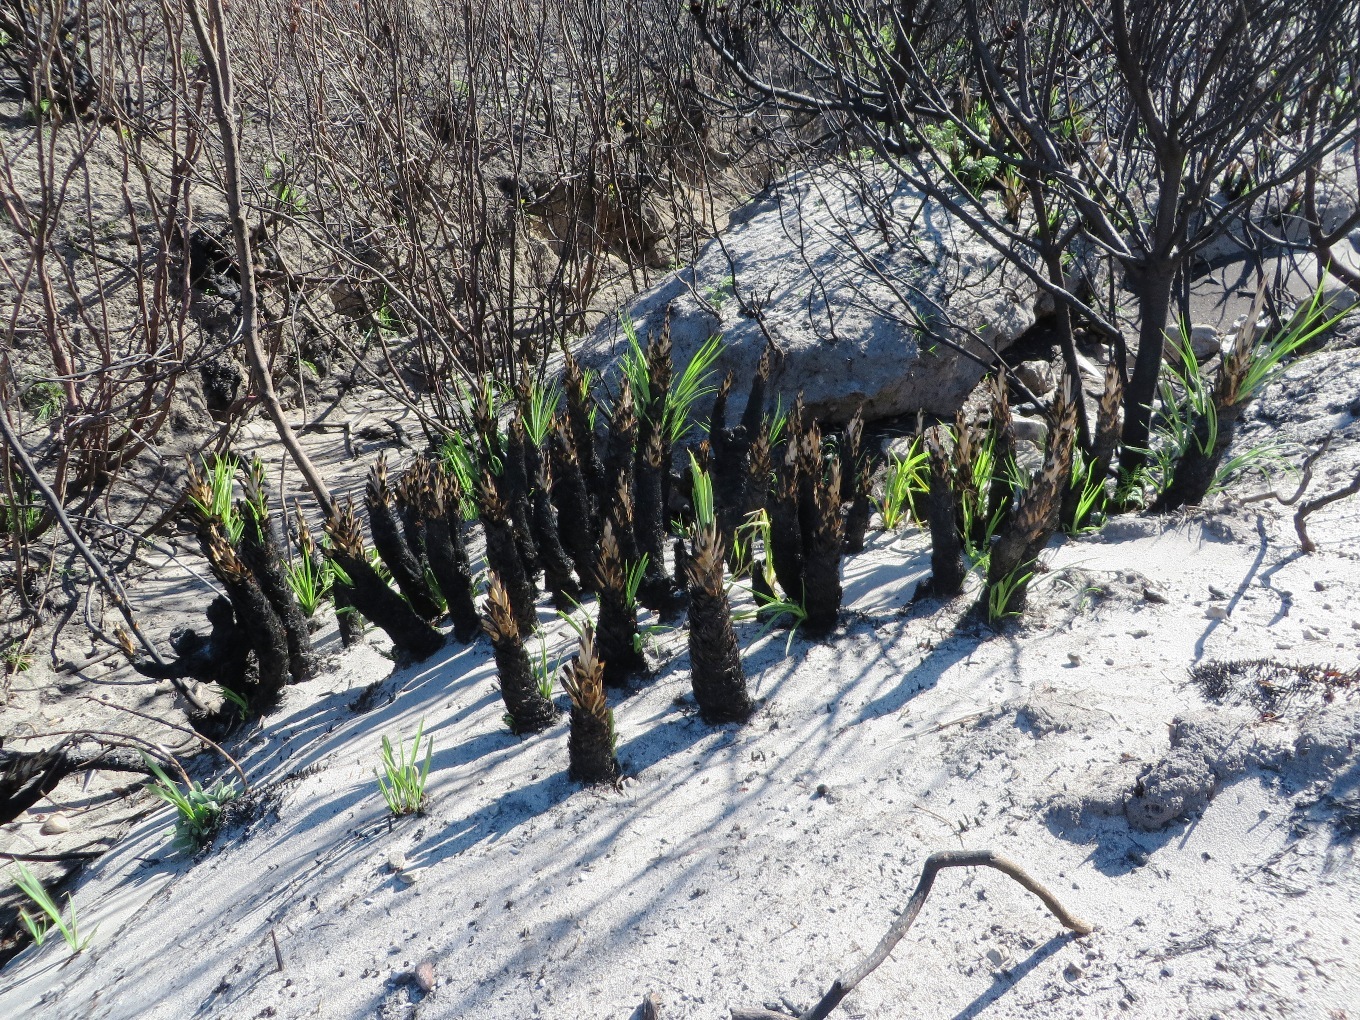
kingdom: Plantae
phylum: Tracheophyta
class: Liliopsida
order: Poales
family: Thurniaceae
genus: Prionium
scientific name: Prionium serratum
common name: Palmiet
